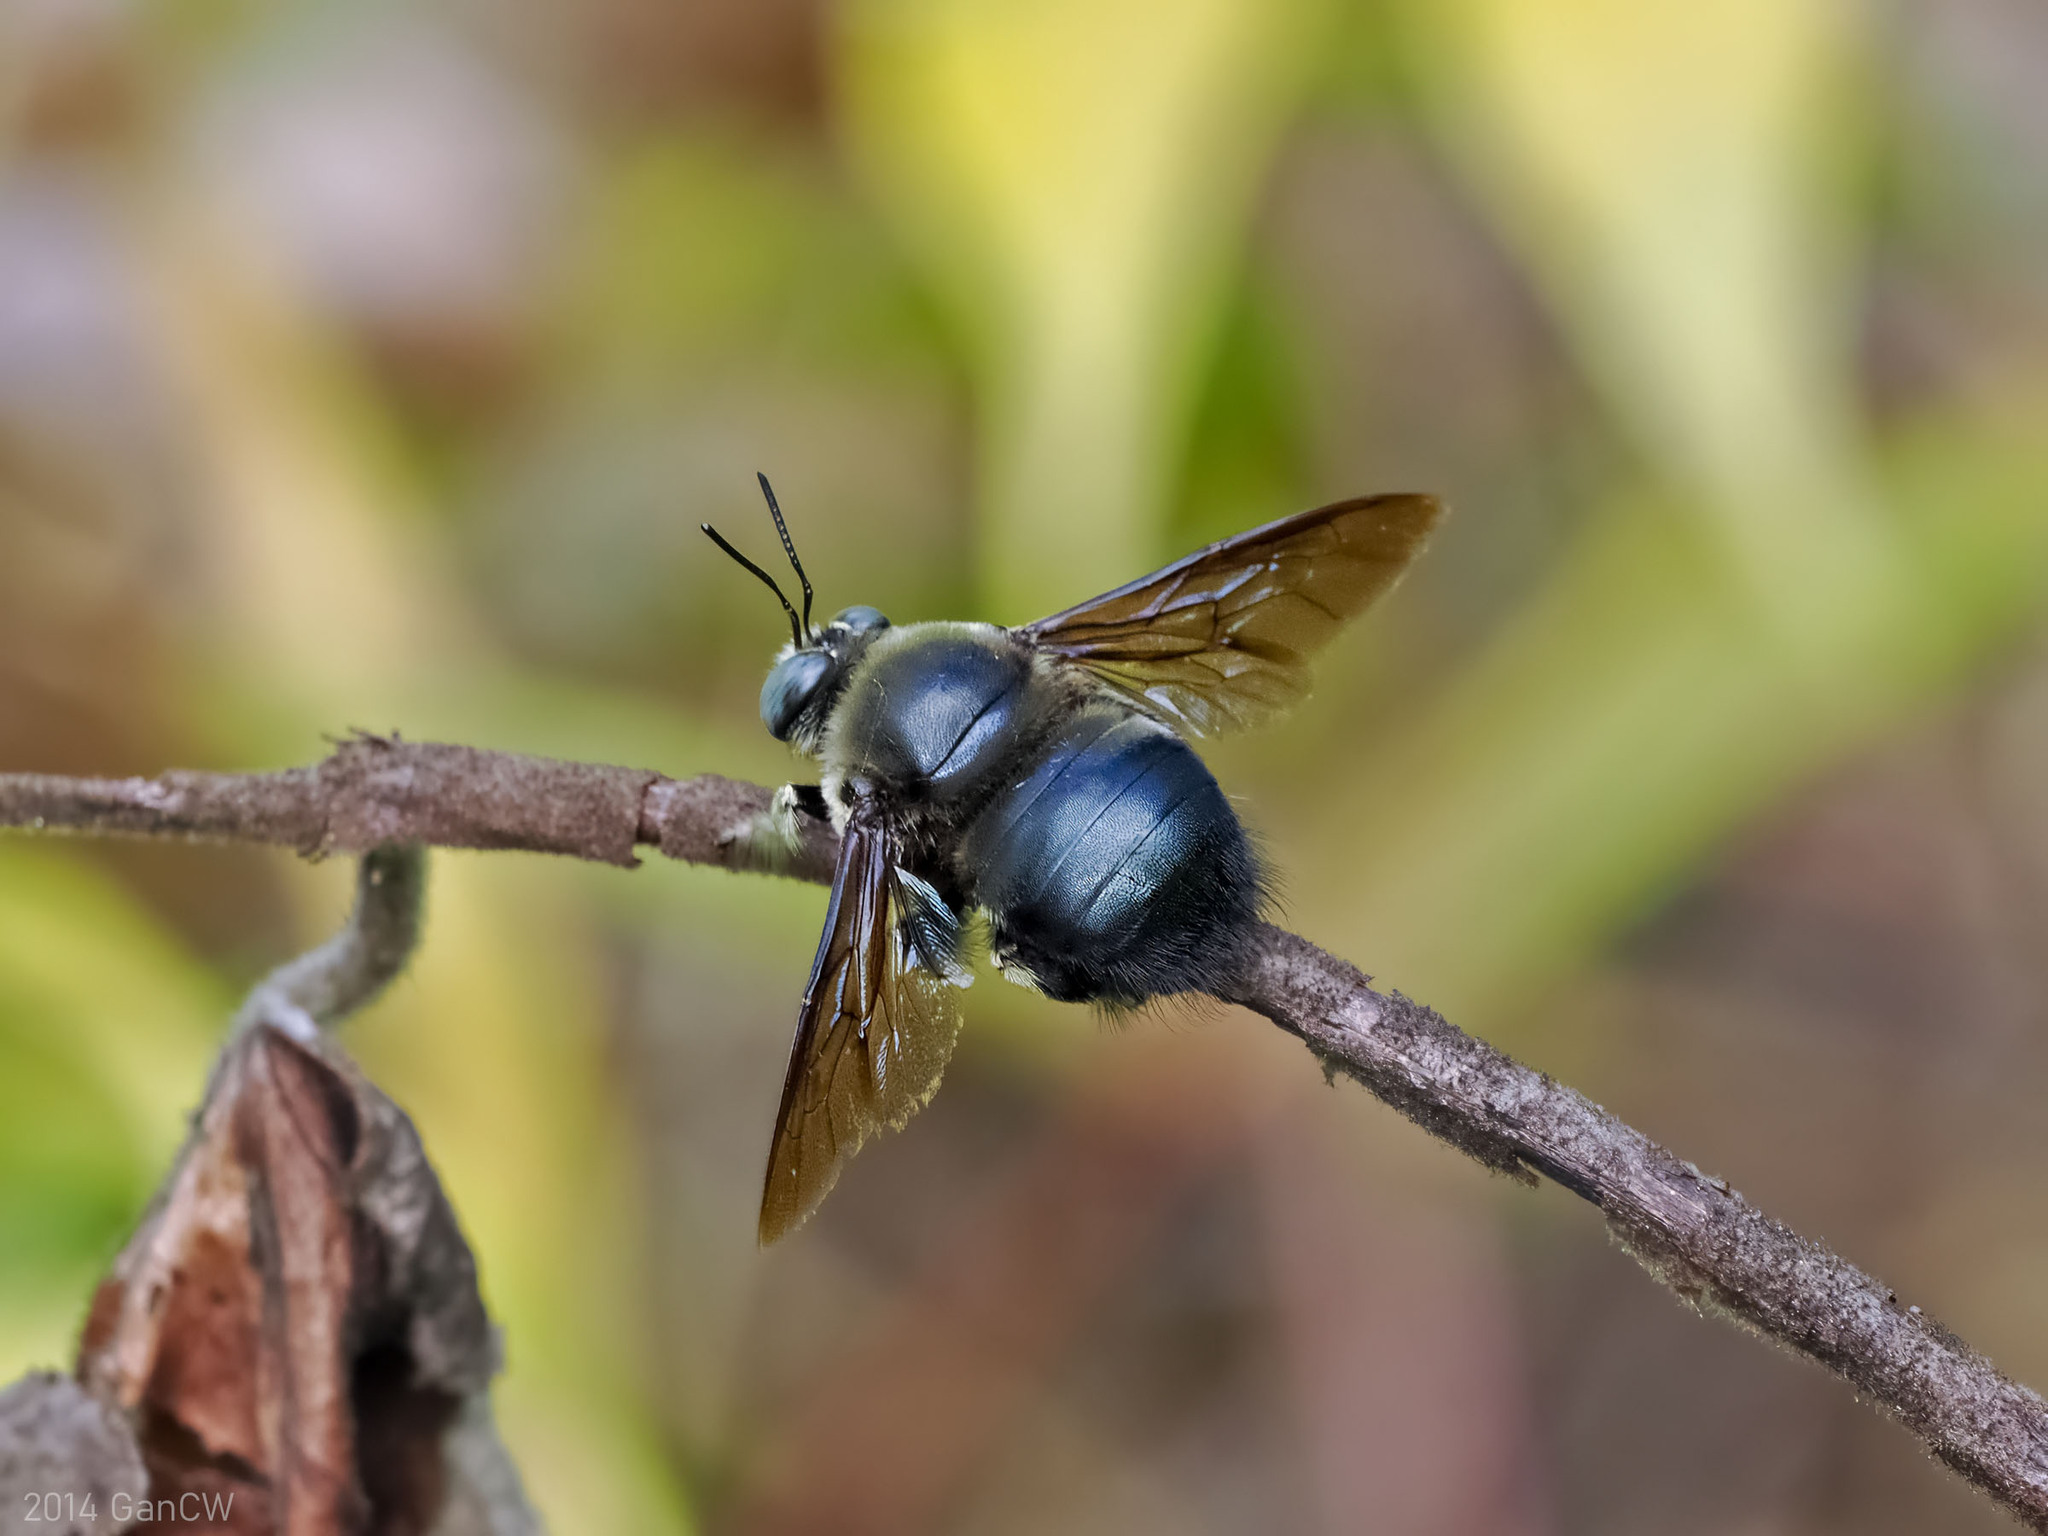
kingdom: Animalia
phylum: Arthropoda
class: Insecta
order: Hymenoptera
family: Apidae
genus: Xylocopa
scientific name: Xylocopa fuliginata
